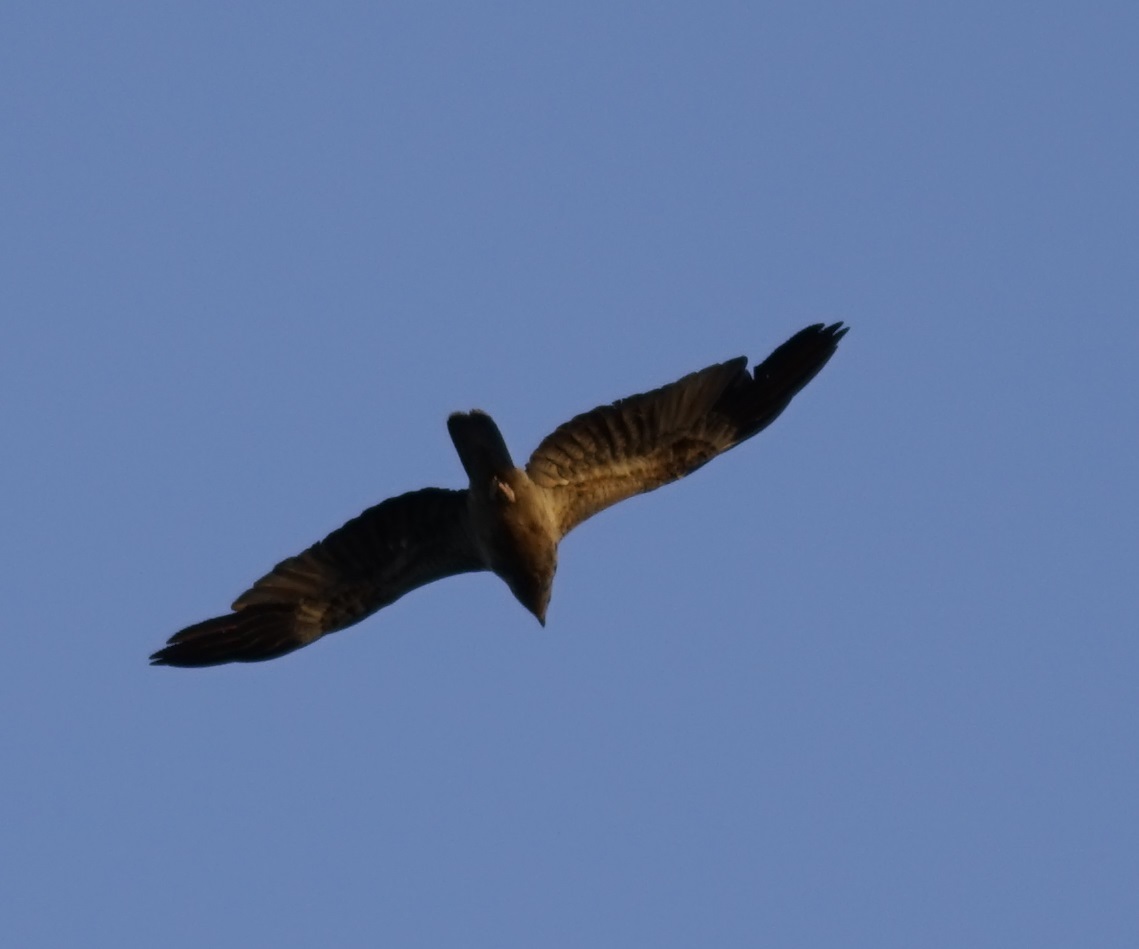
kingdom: Animalia
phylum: Chordata
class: Aves
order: Accipitriformes
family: Accipitridae
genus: Haliastur
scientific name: Haliastur sphenurus
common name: Whistling kite
